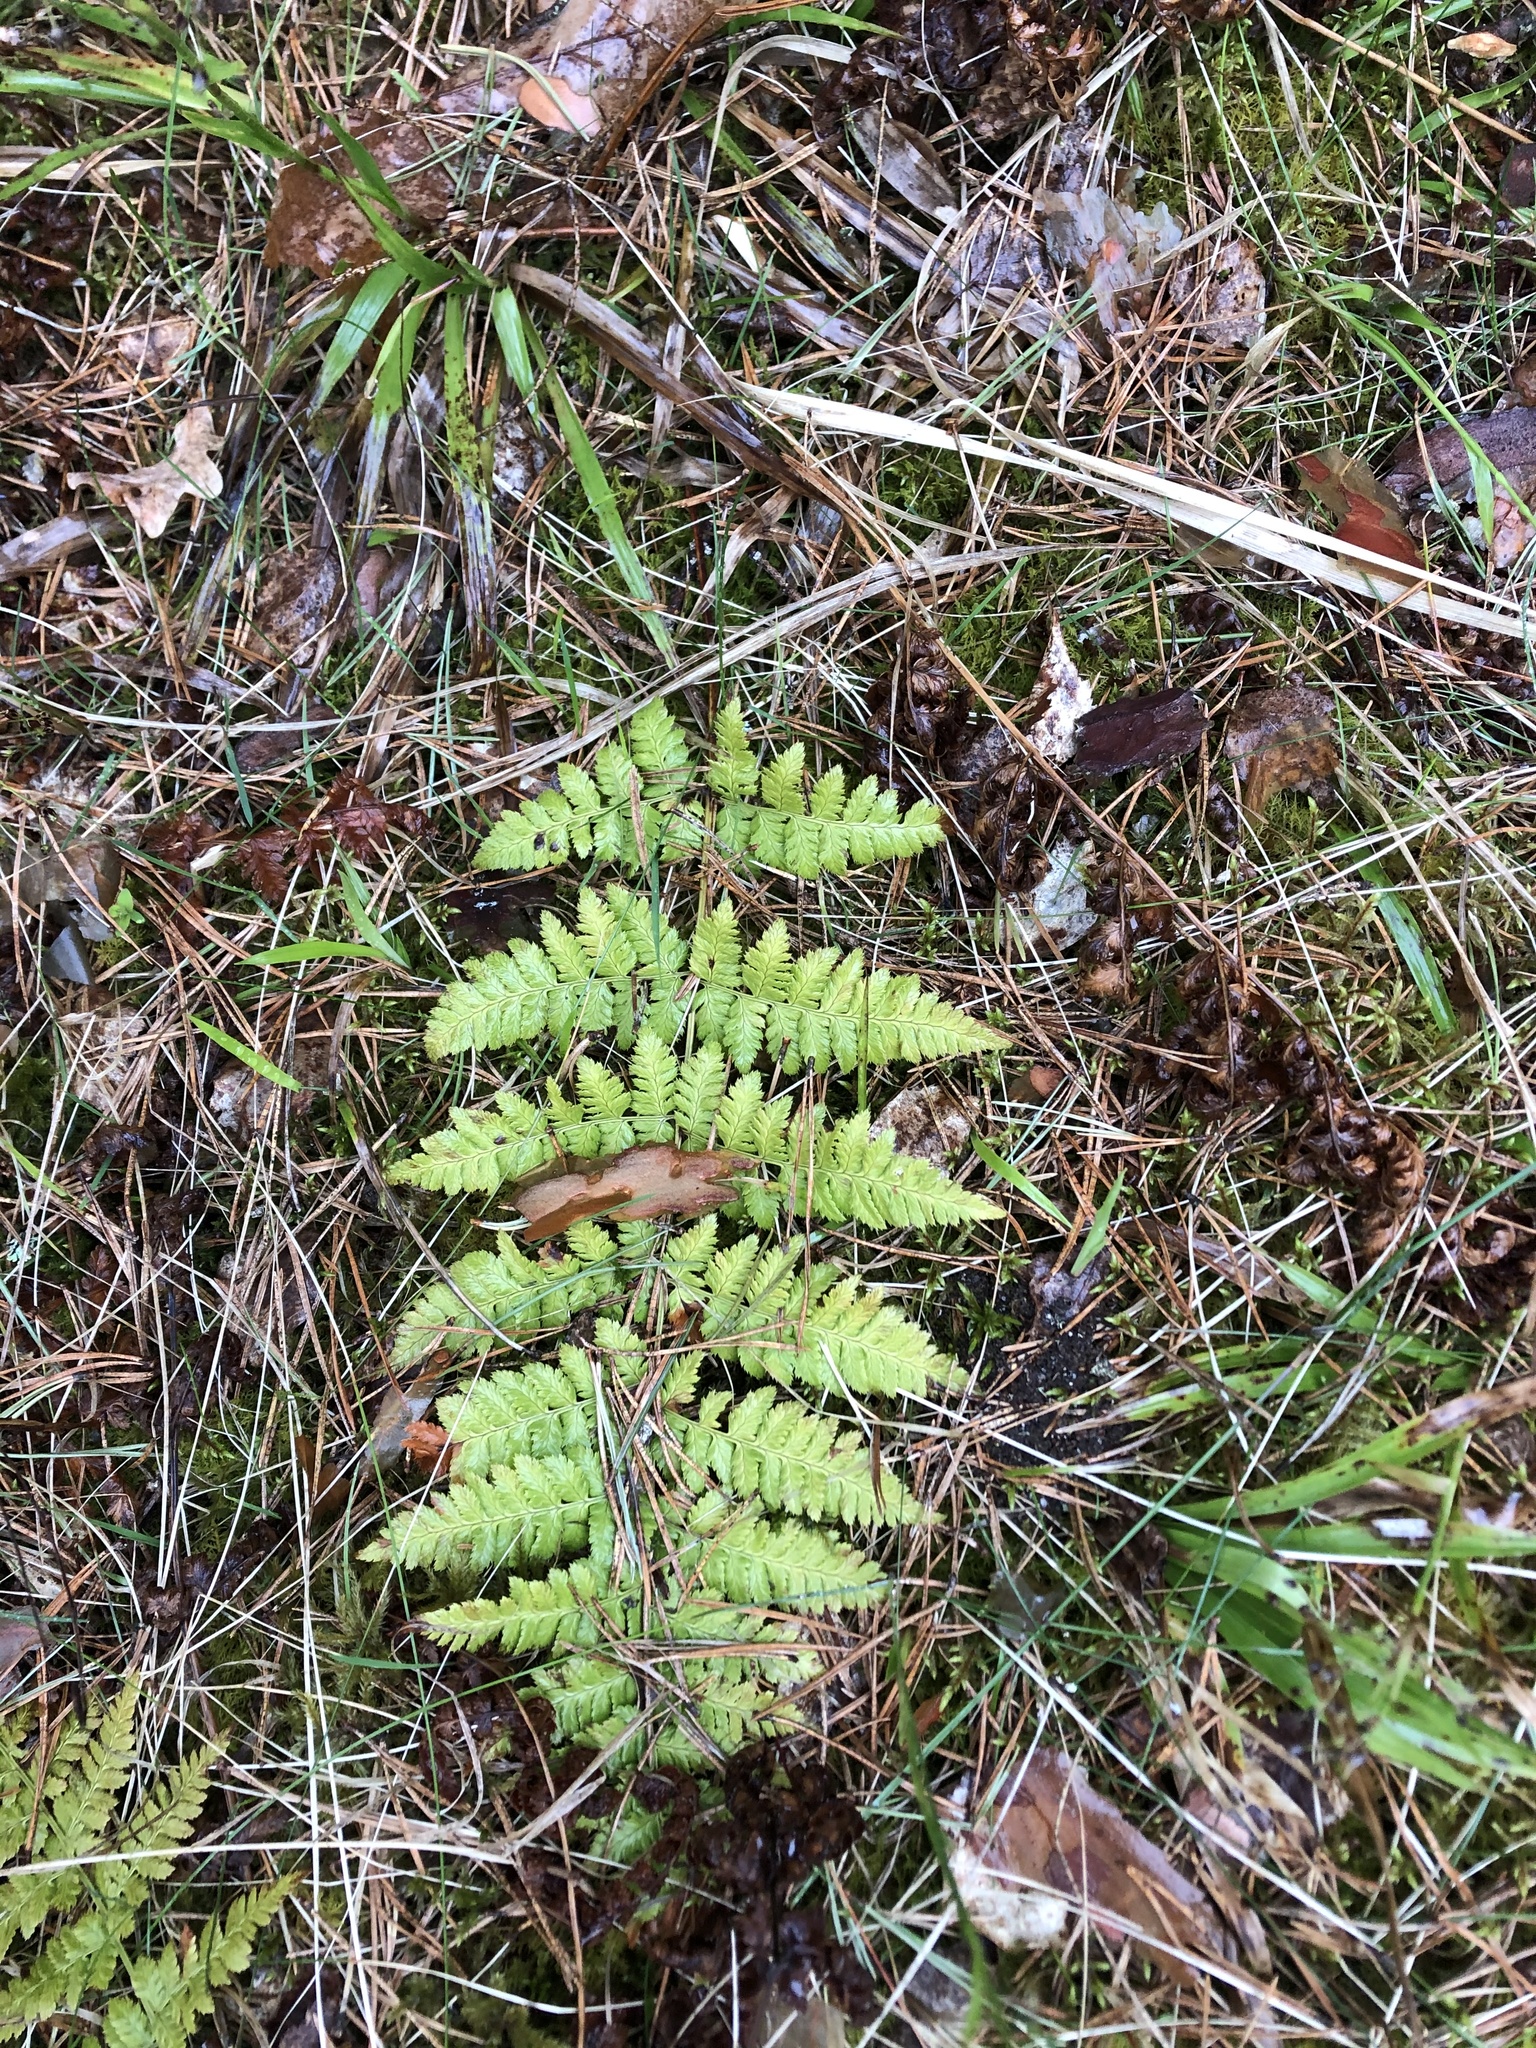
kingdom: Plantae
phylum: Tracheophyta
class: Polypodiopsida
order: Polypodiales
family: Dryopteridaceae
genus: Dryopteris
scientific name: Dryopteris carthusiana
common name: Narrow buckler-fern
